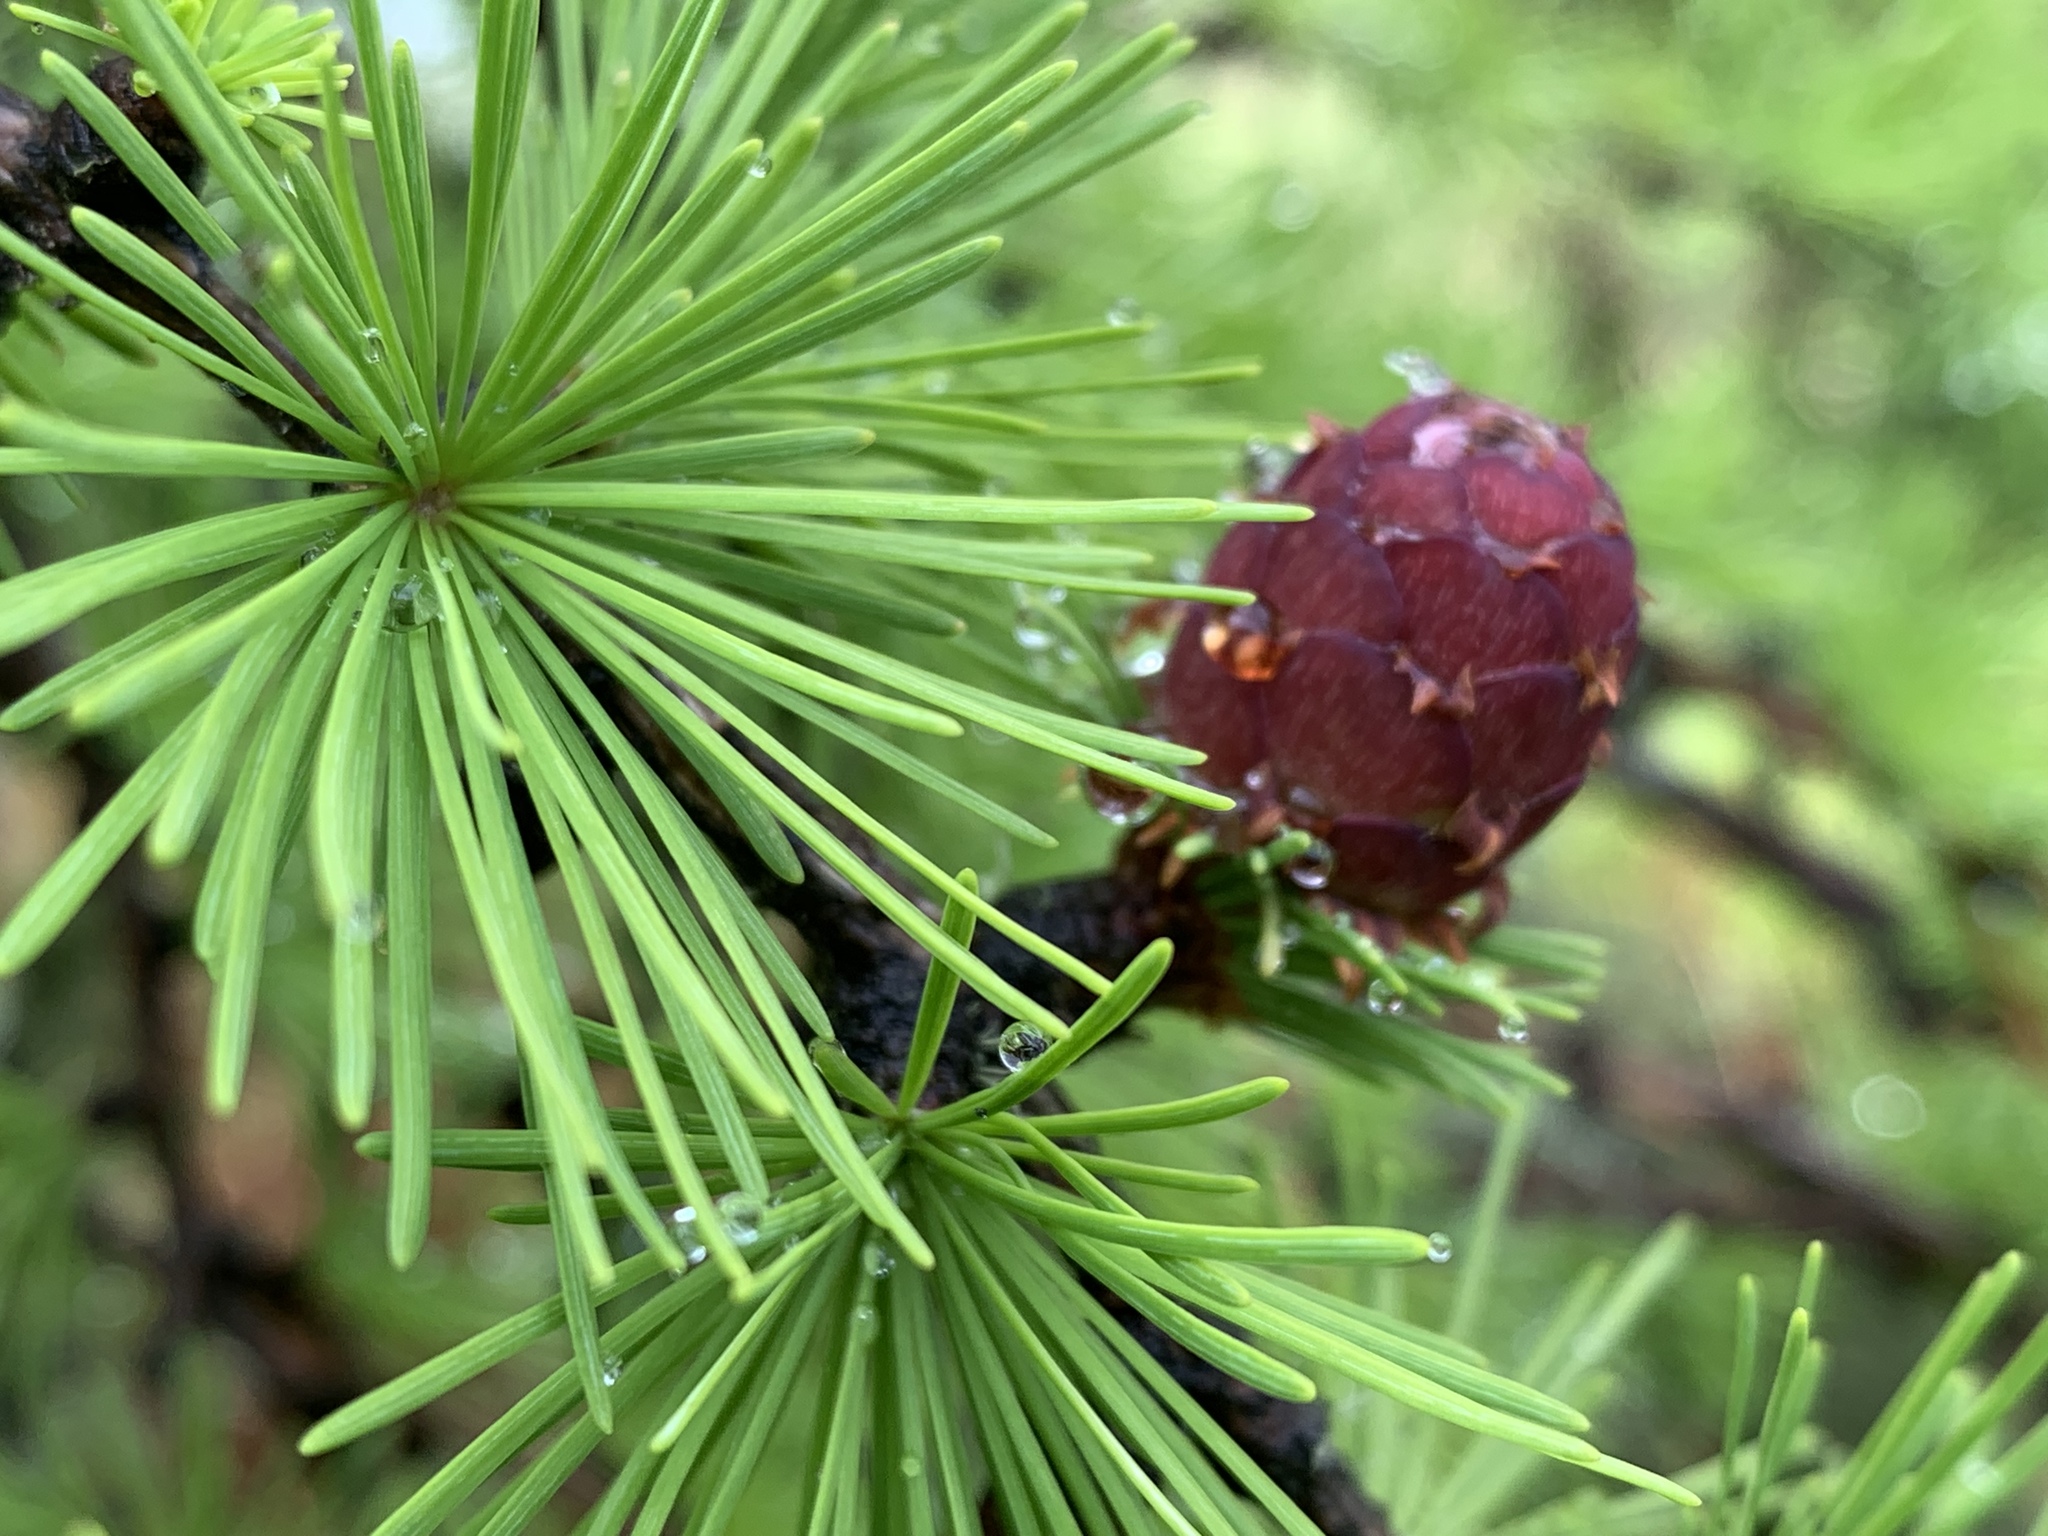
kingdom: Plantae
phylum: Tracheophyta
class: Pinopsida
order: Pinales
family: Pinaceae
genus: Larix
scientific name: Larix decidua
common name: European larch
